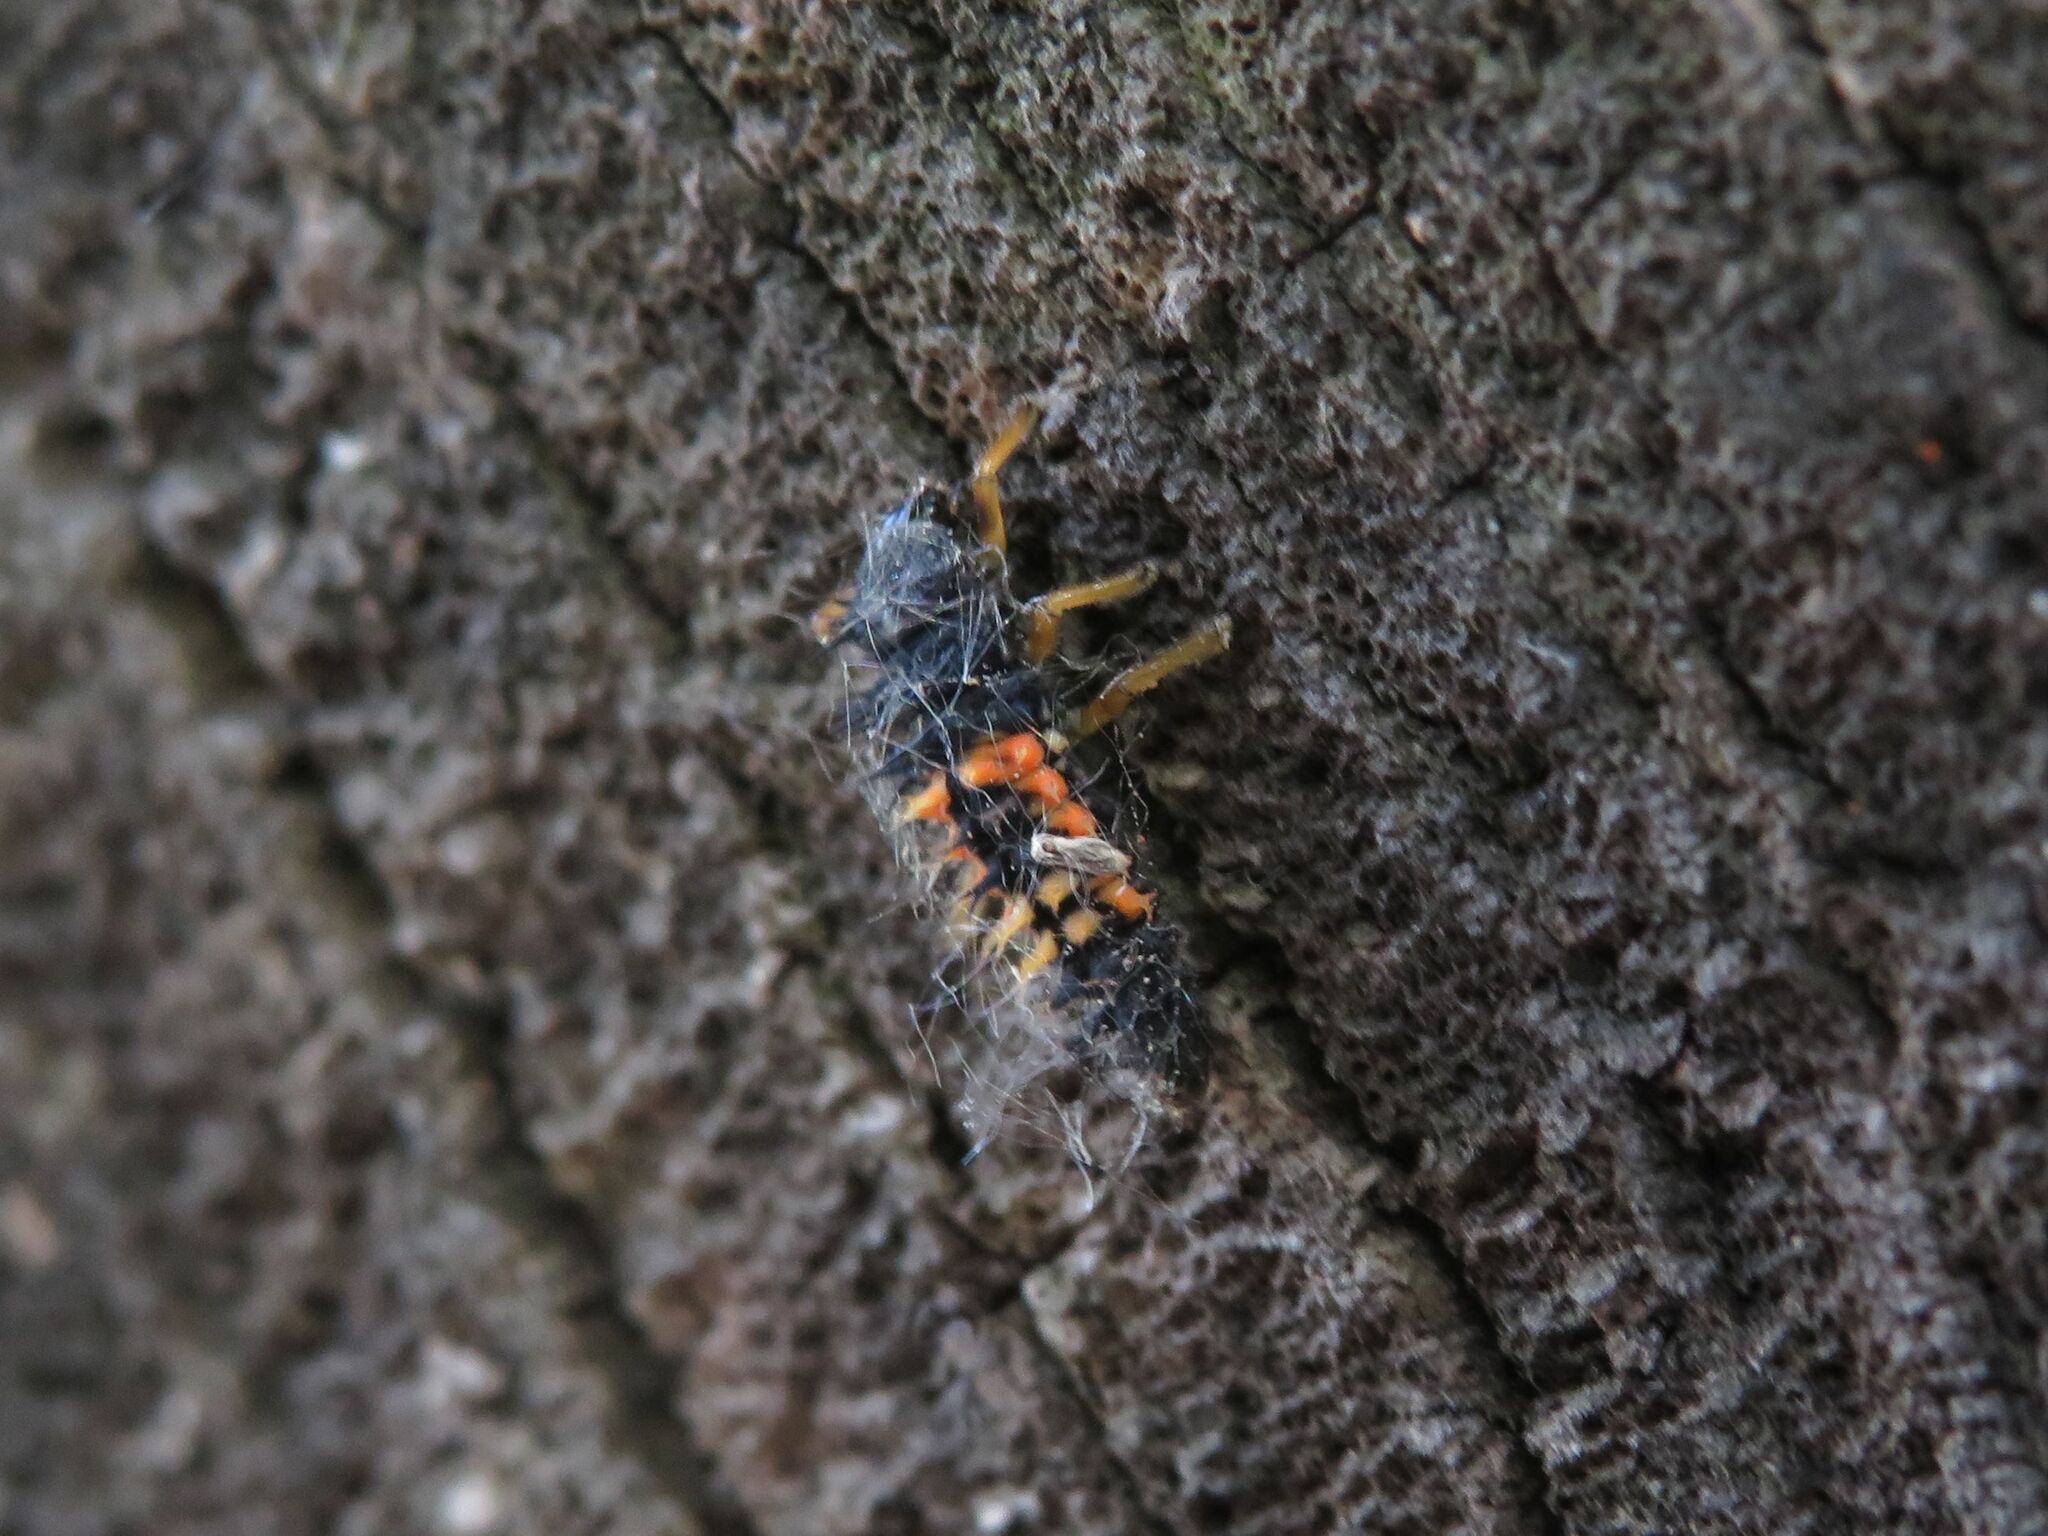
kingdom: Animalia
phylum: Arthropoda
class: Insecta
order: Coleoptera
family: Coccinellidae
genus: Harmonia
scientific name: Harmonia axyridis
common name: Harlequin ladybird
